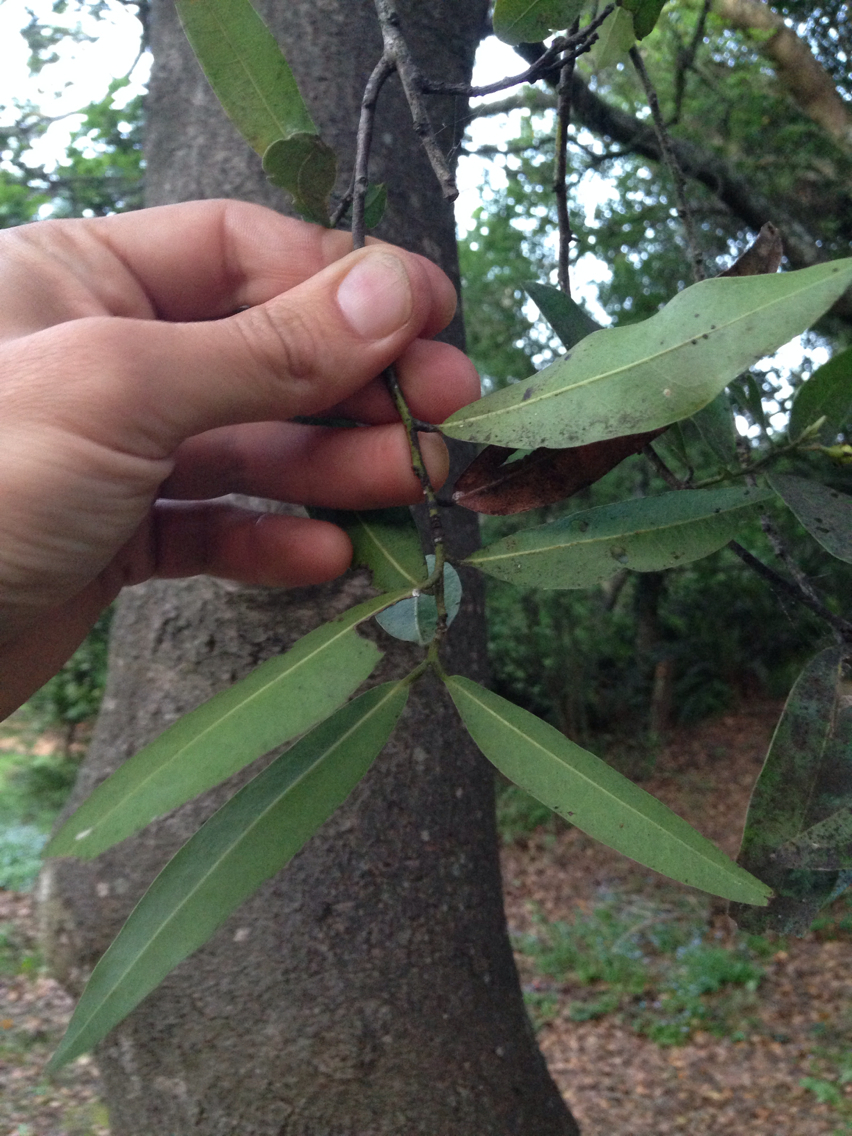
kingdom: Plantae
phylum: Tracheophyta
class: Magnoliopsida
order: Laurales
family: Lauraceae
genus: Umbellularia
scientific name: Umbellularia californica
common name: California bay
